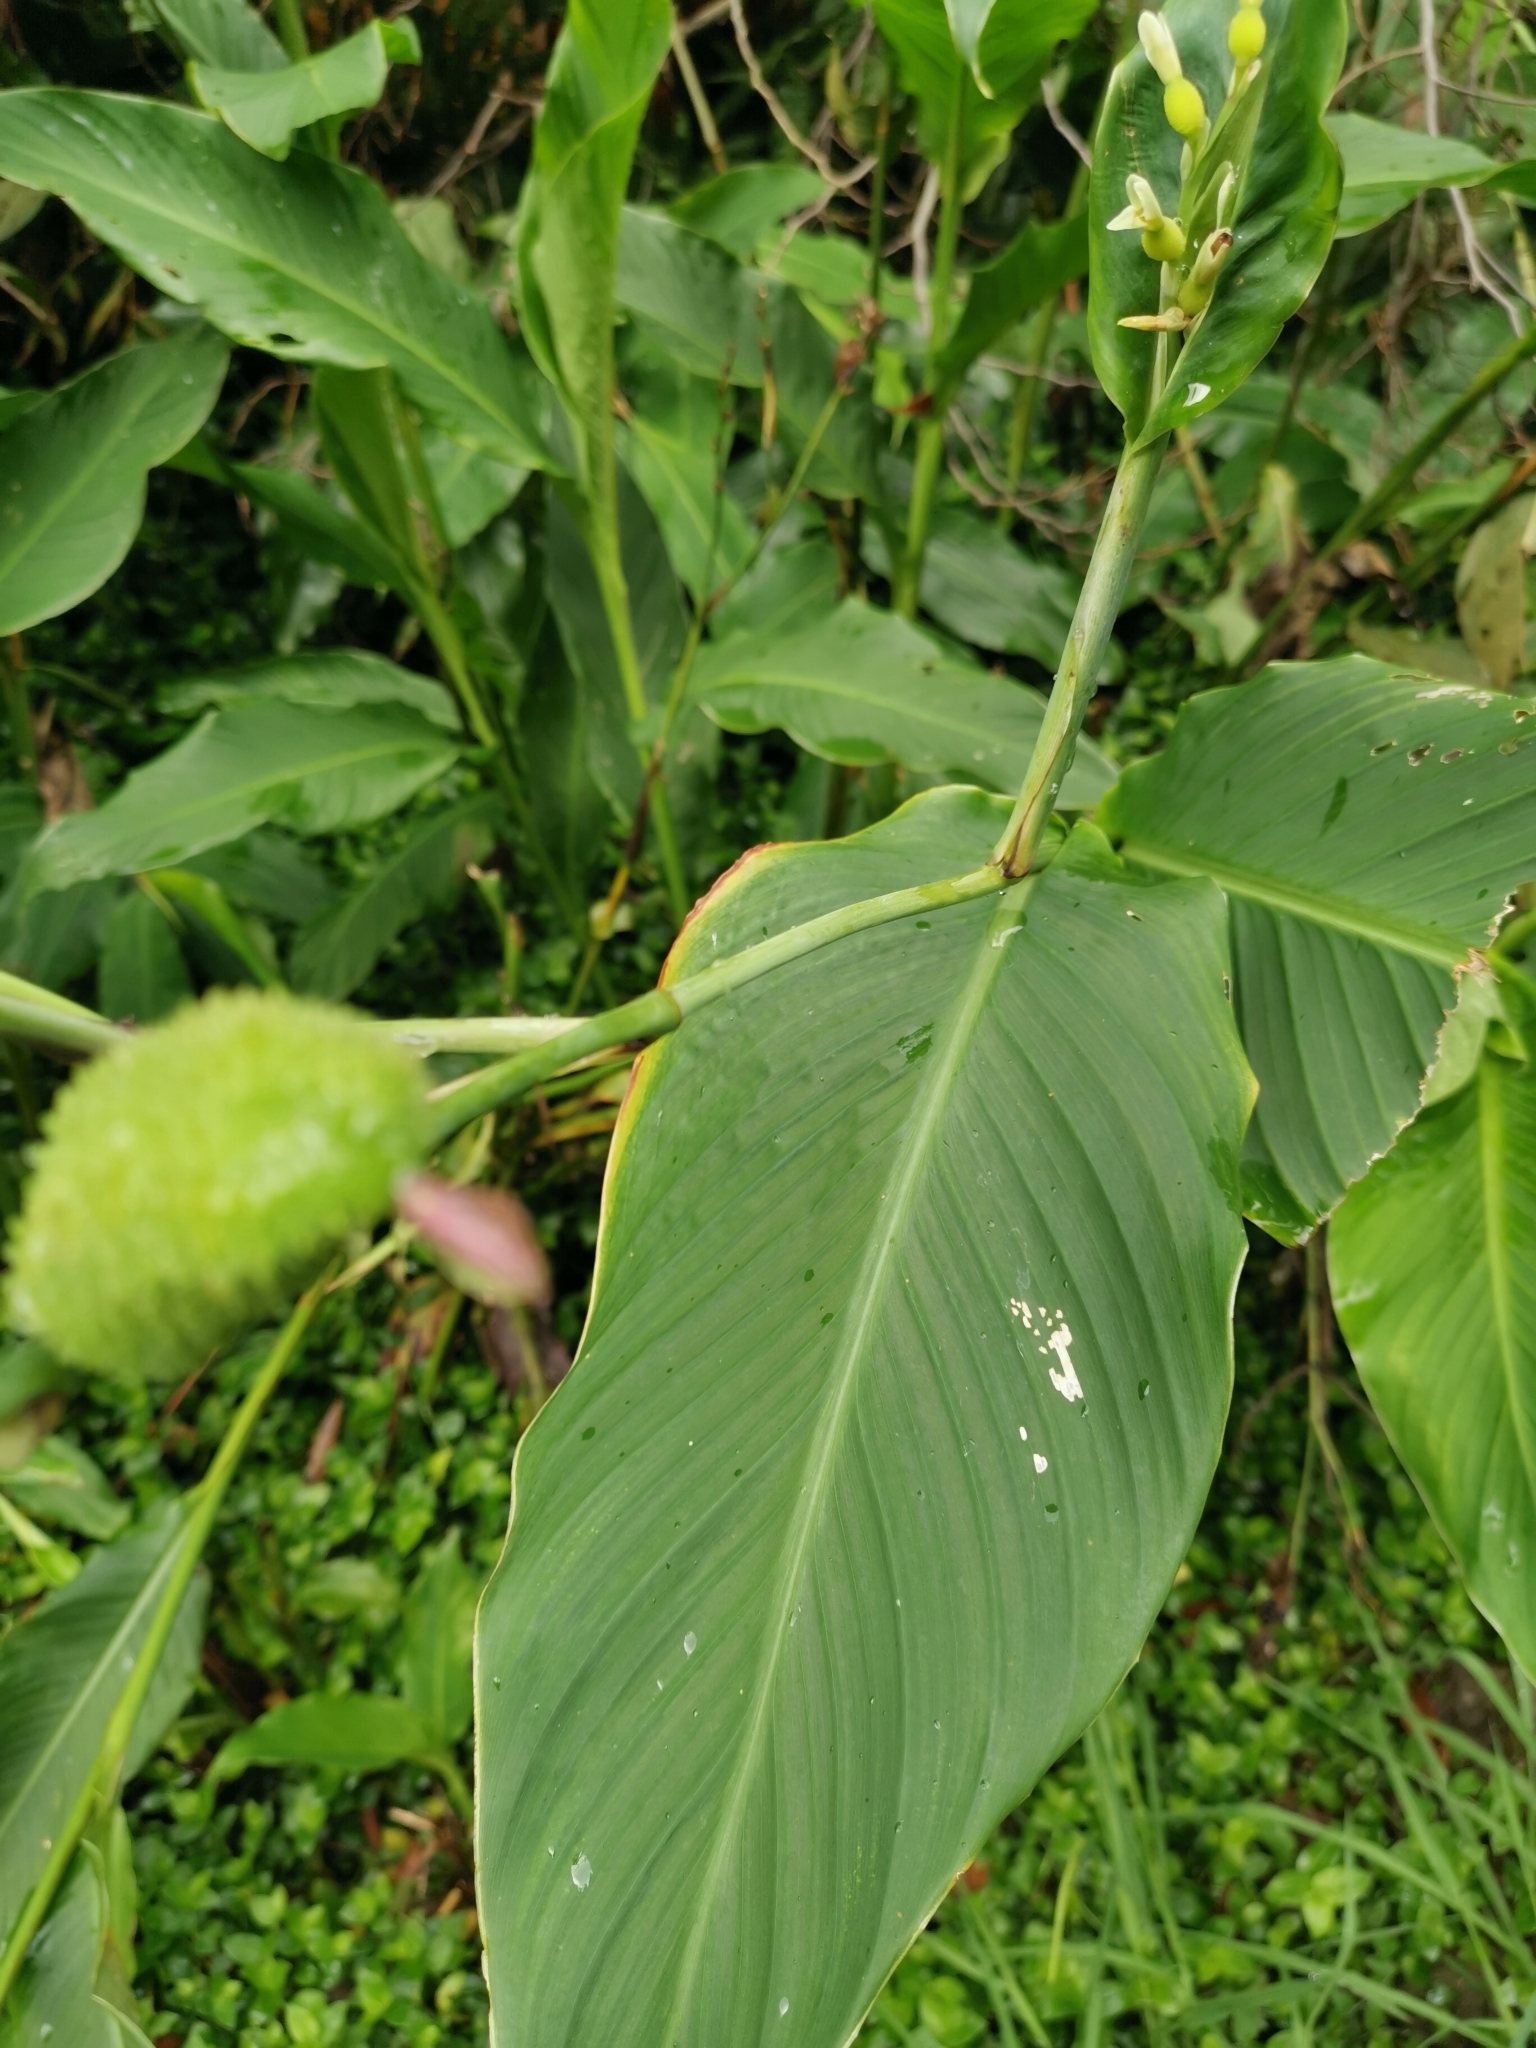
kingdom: Plantae
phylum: Tracheophyta
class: Liliopsida
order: Zingiberales
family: Cannaceae
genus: Canna
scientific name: Canna indica
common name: Indian shot
